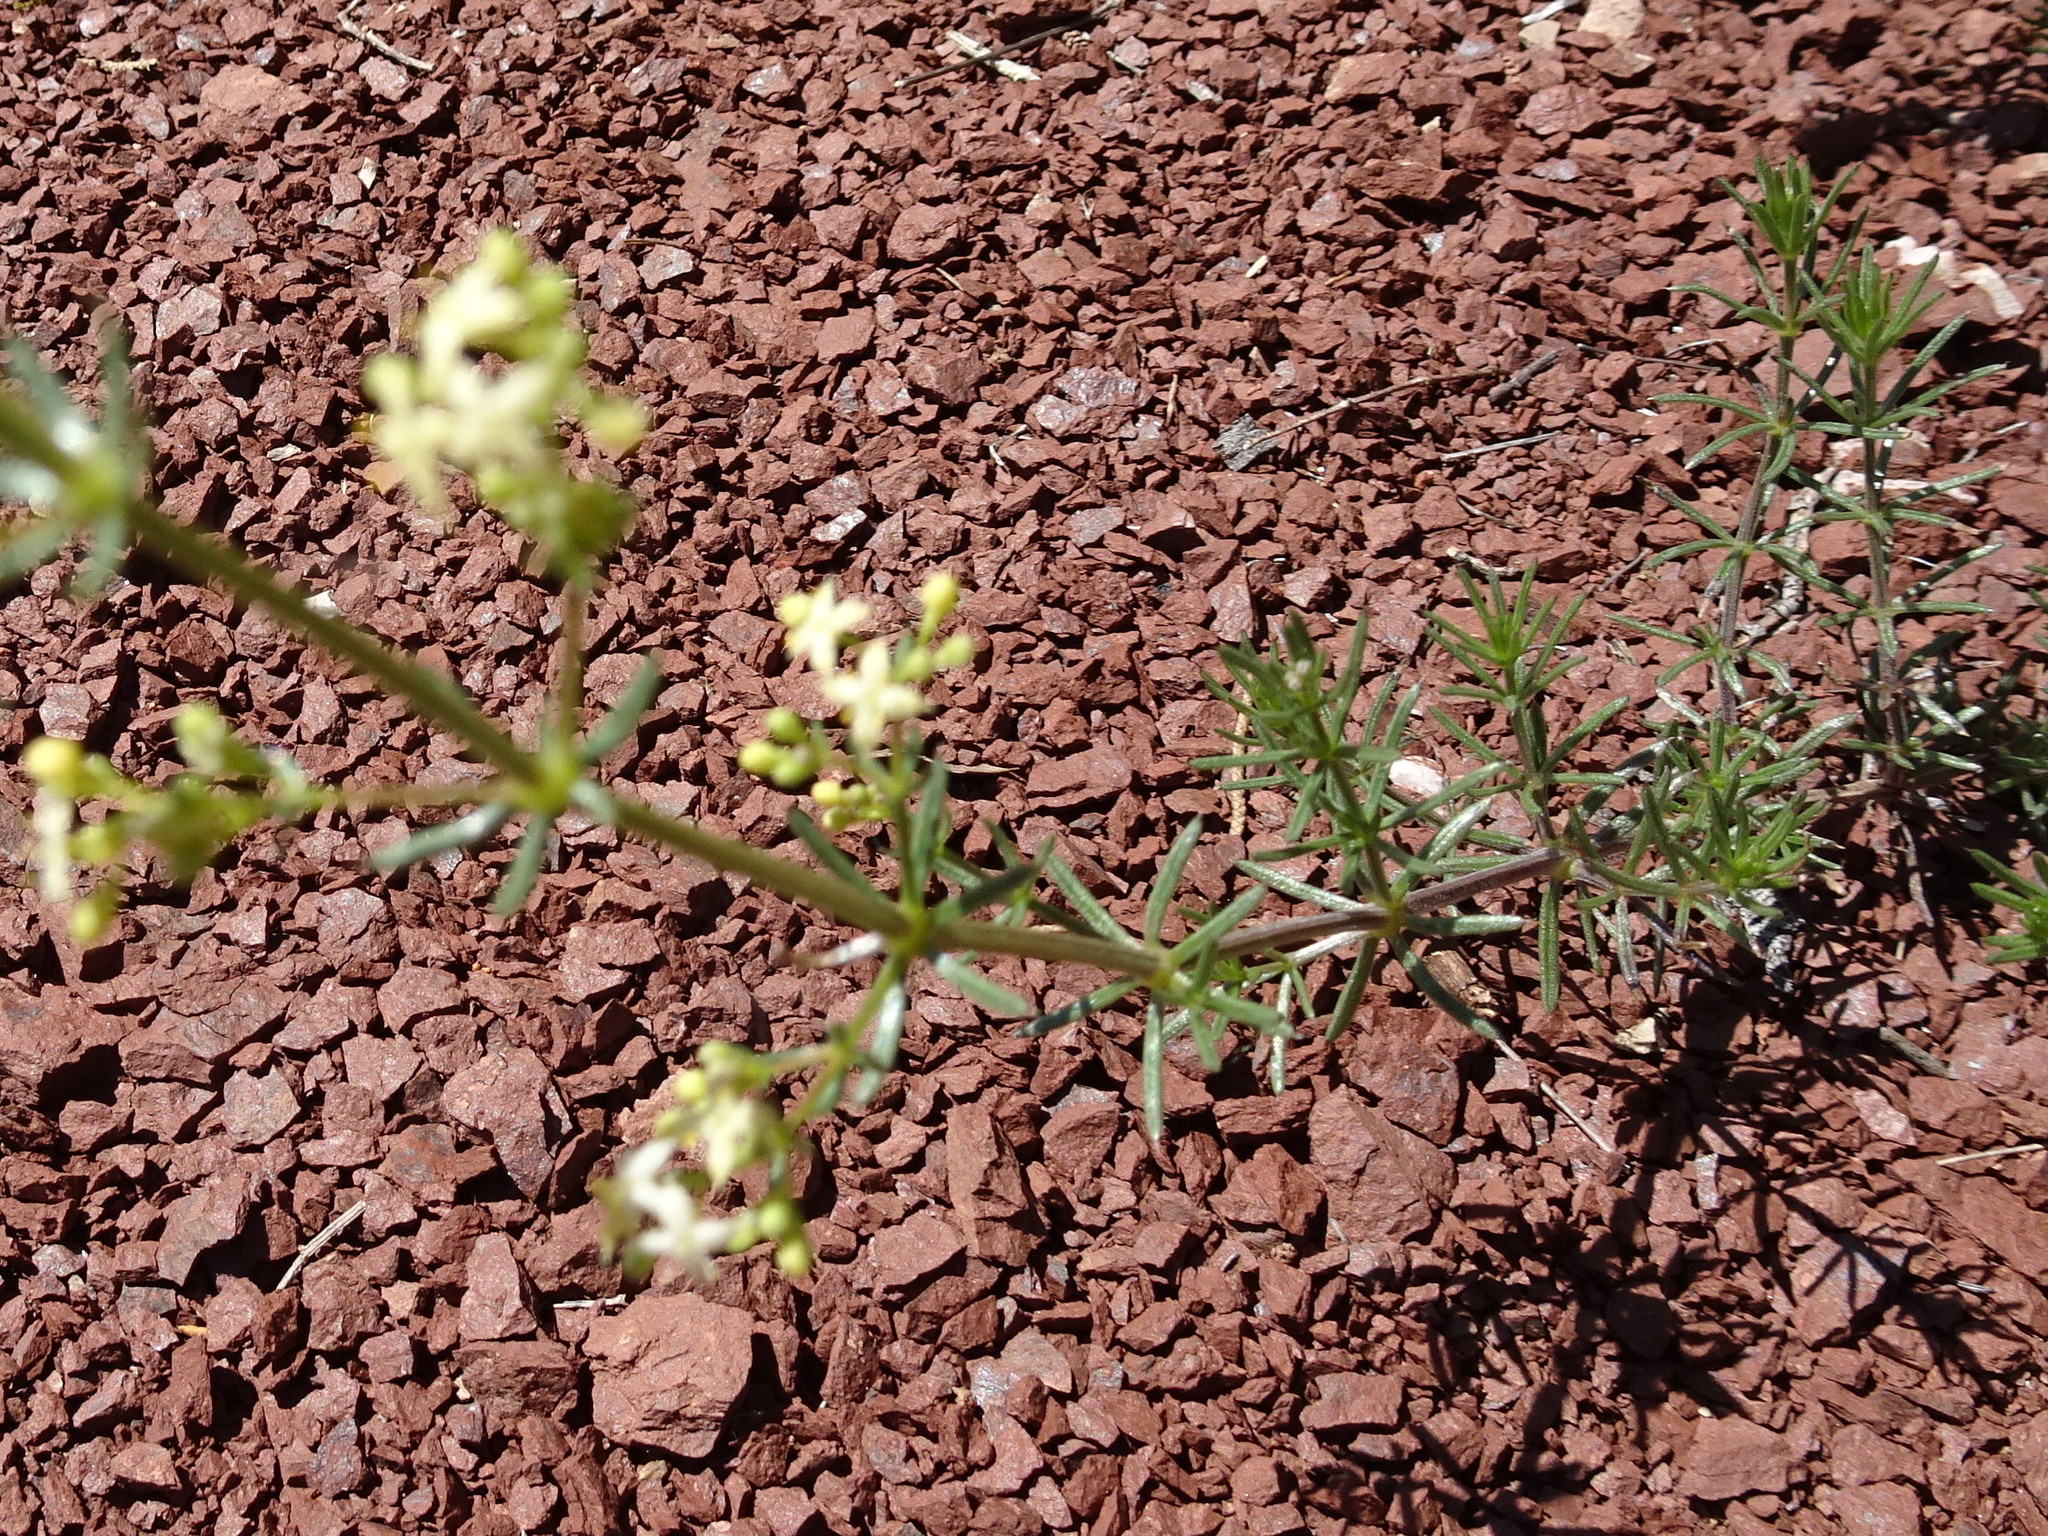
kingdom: Plantae
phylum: Tracheophyta
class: Magnoliopsida
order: Gentianales
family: Rubiaceae
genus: Galium
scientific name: Galium lucidum
